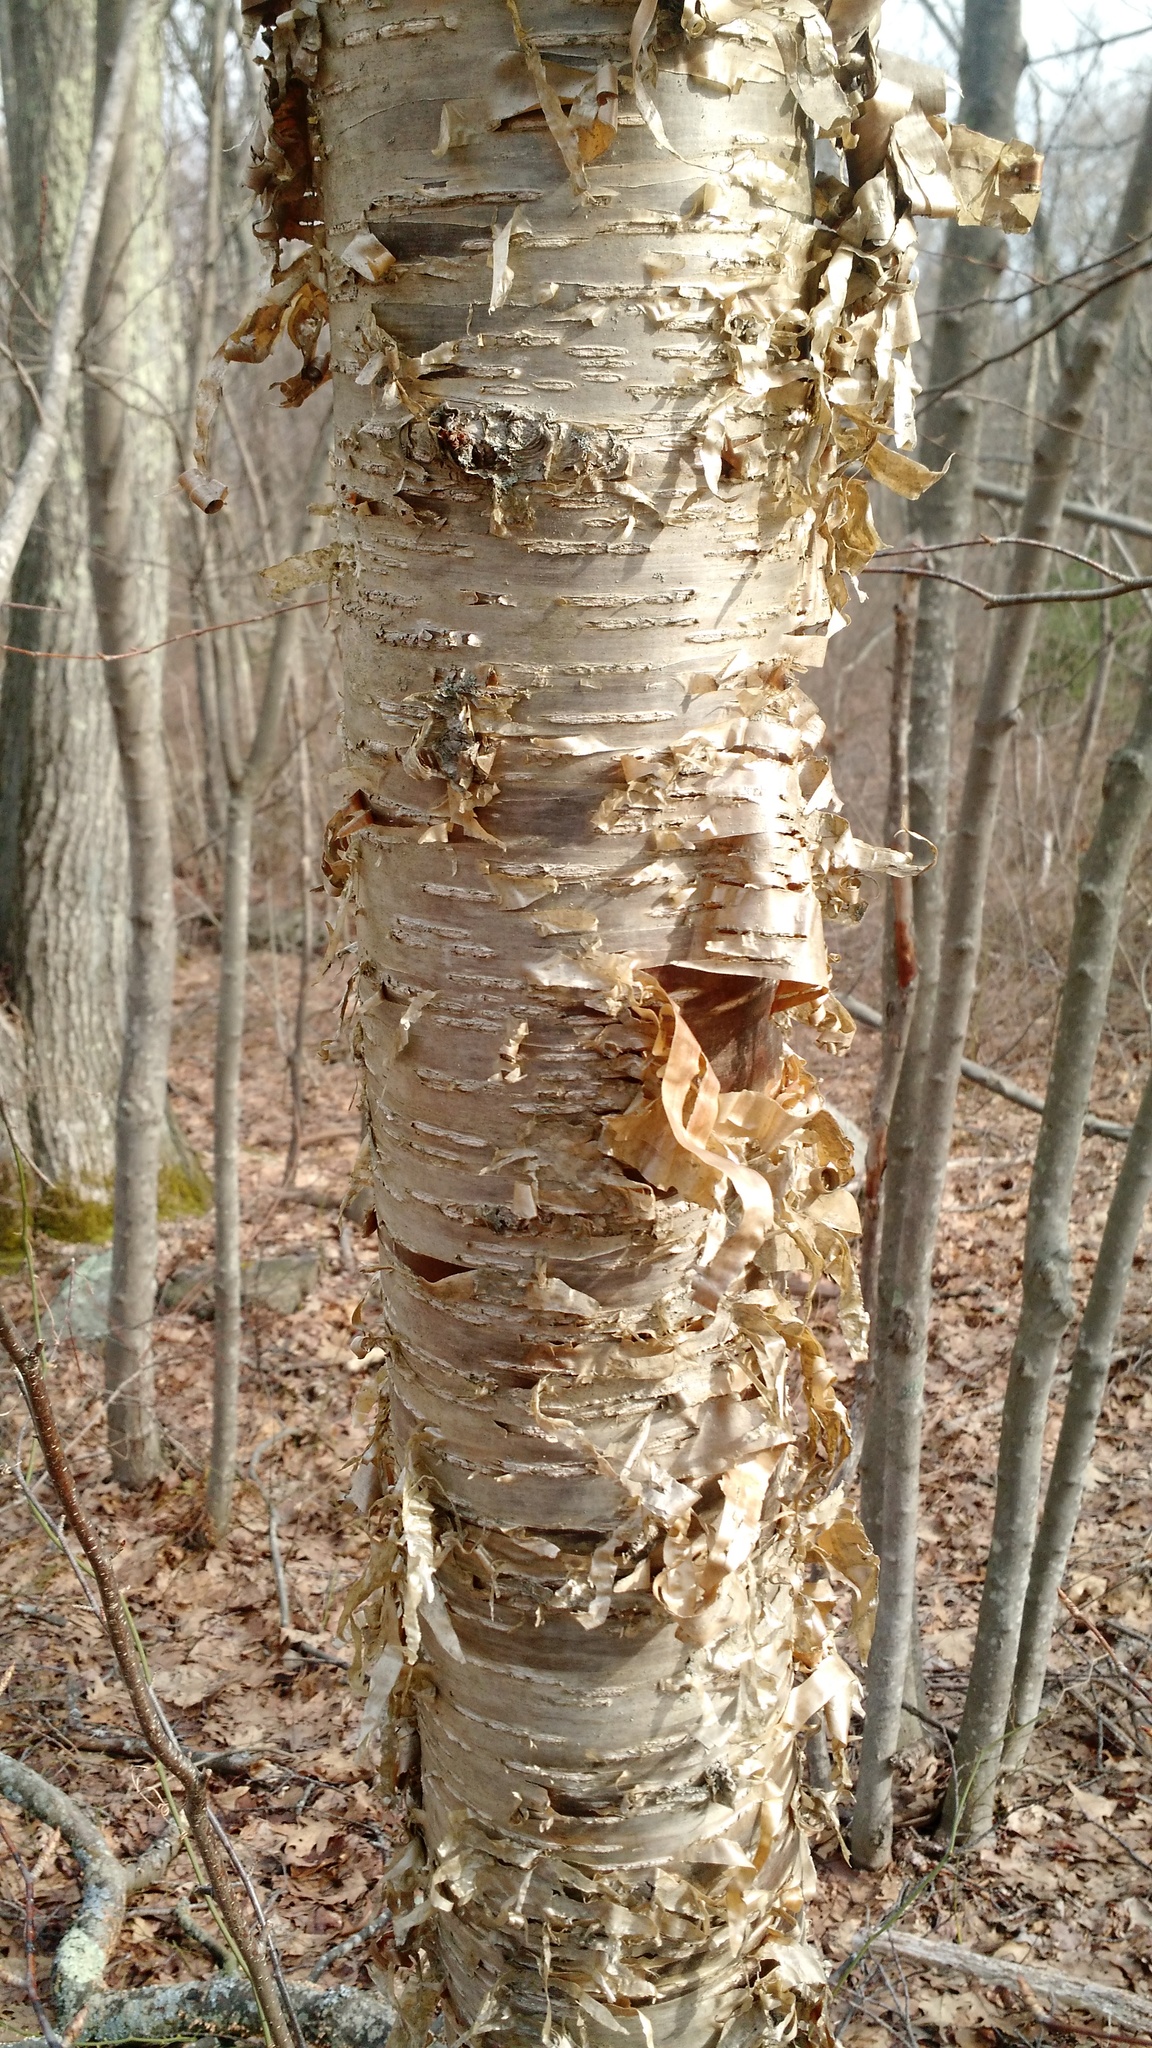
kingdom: Plantae
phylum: Tracheophyta
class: Magnoliopsida
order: Fagales
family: Betulaceae
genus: Betula
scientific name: Betula alleghaniensis
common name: Yellow birch
